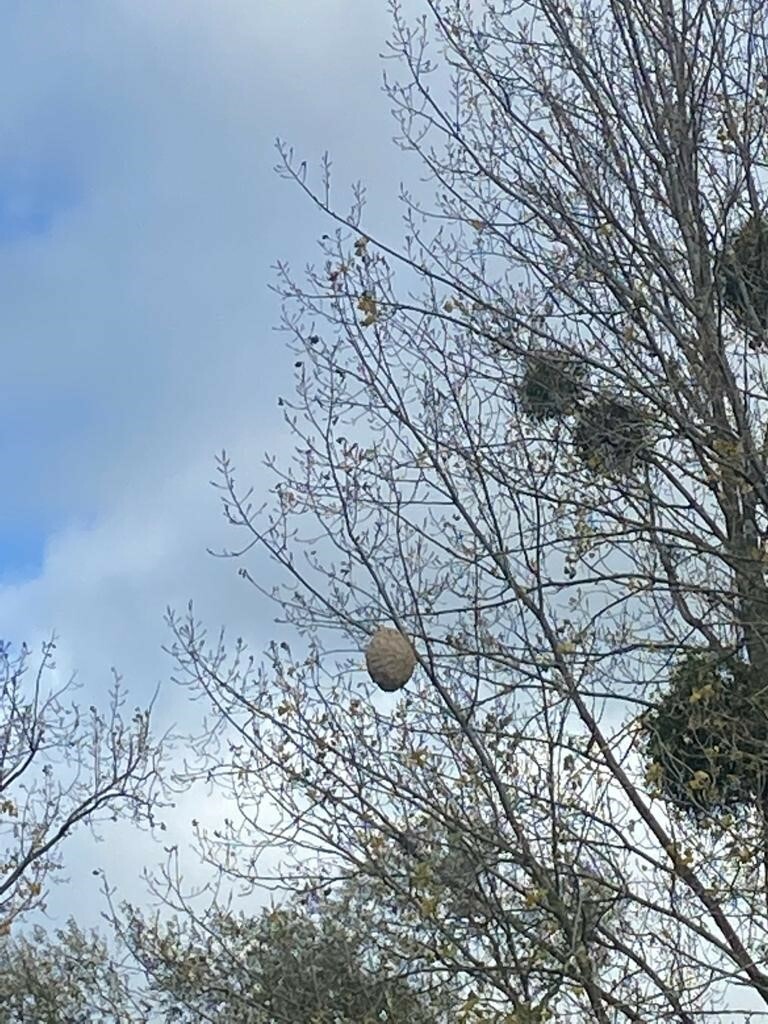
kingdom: Animalia
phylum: Arthropoda
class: Insecta
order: Hymenoptera
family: Vespidae
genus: Vespa
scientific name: Vespa velutina
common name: Asian hornet
